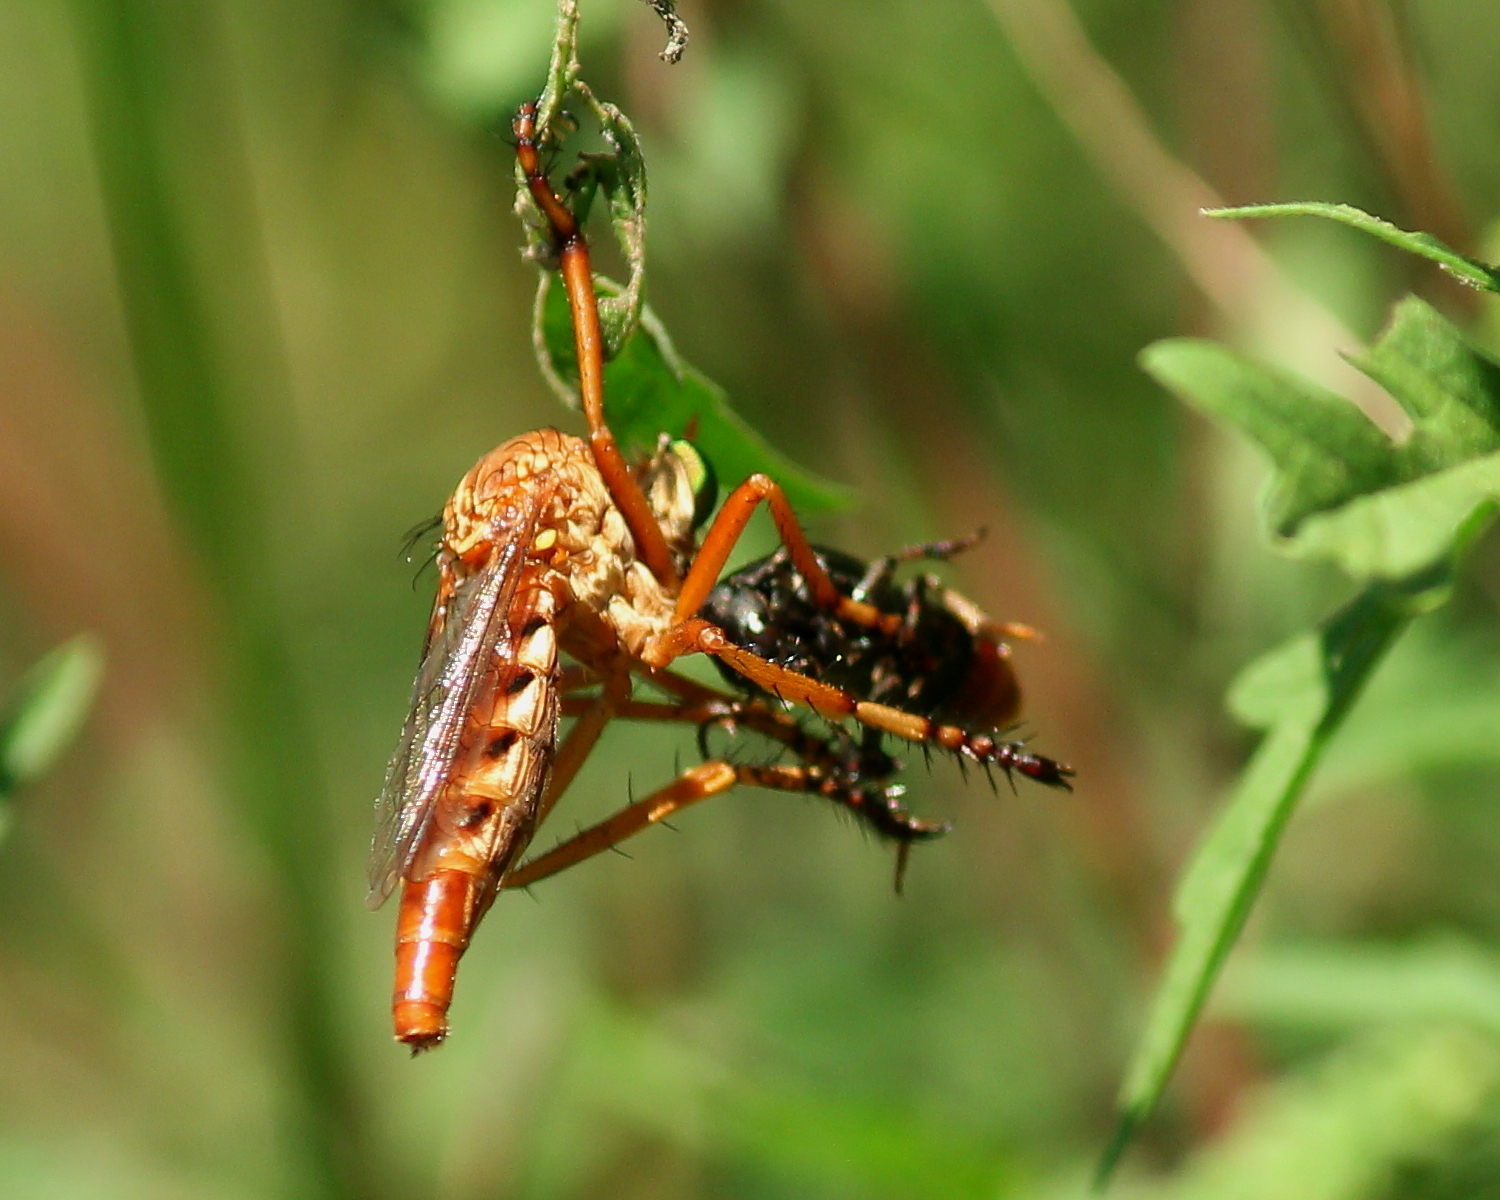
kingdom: Animalia
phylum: Arthropoda
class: Insecta
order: Diptera
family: Asilidae
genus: Diogmites
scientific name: Diogmites angustipennis
